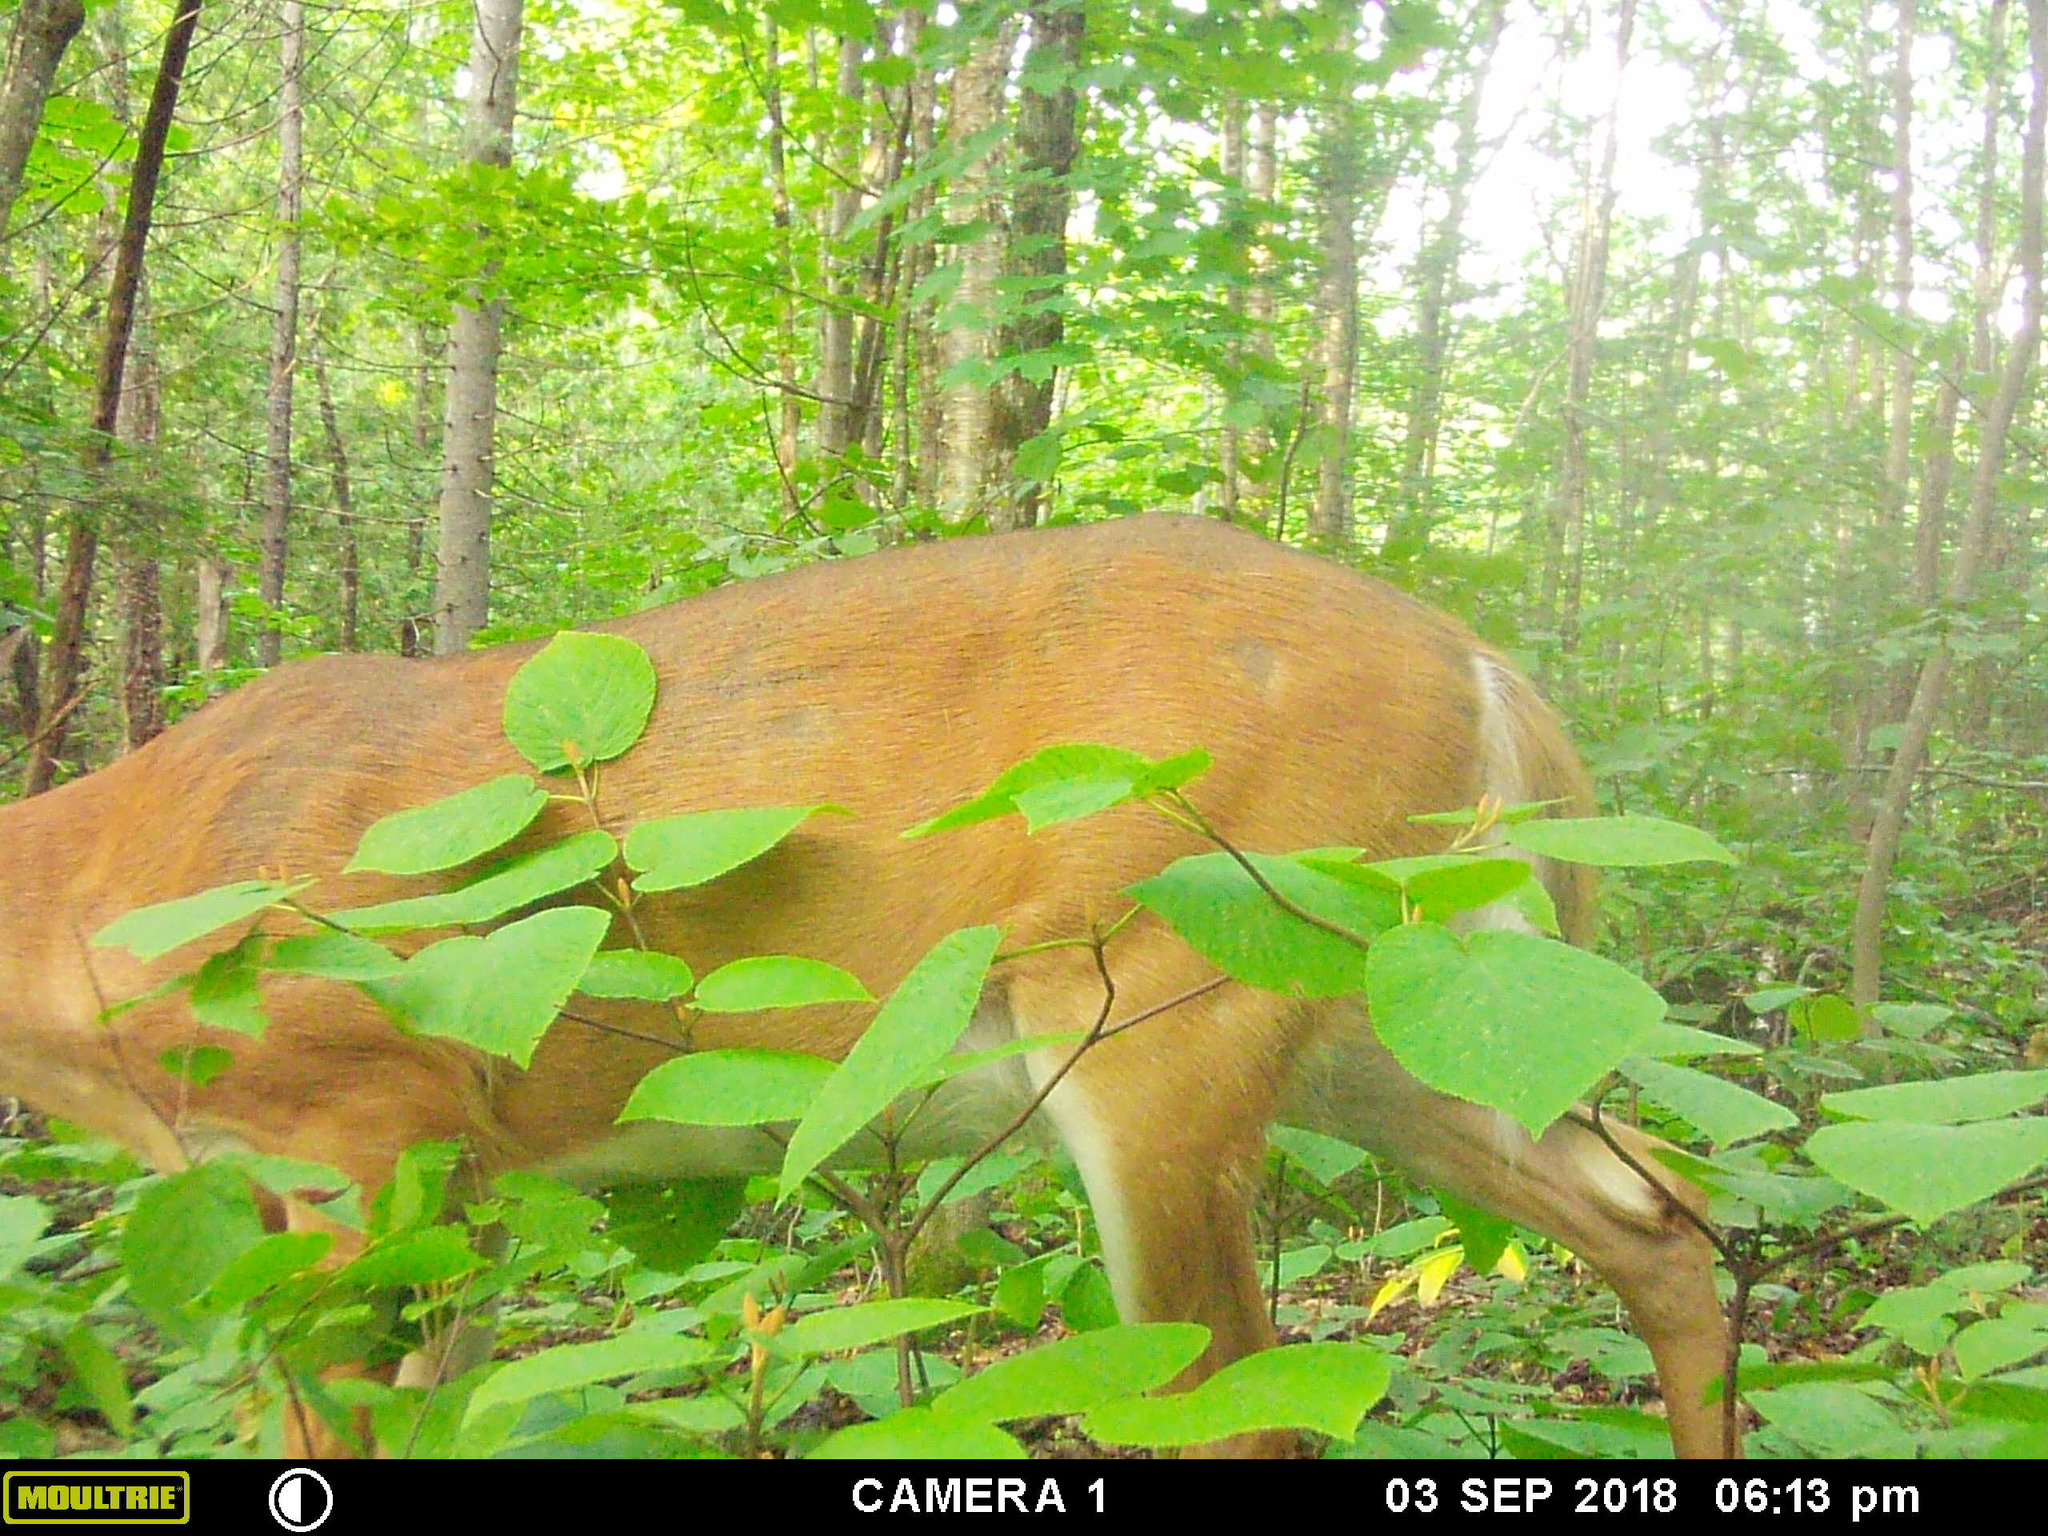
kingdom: Animalia
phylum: Chordata
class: Mammalia
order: Artiodactyla
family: Cervidae
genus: Odocoileus
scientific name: Odocoileus virginianus
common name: White-tailed deer
